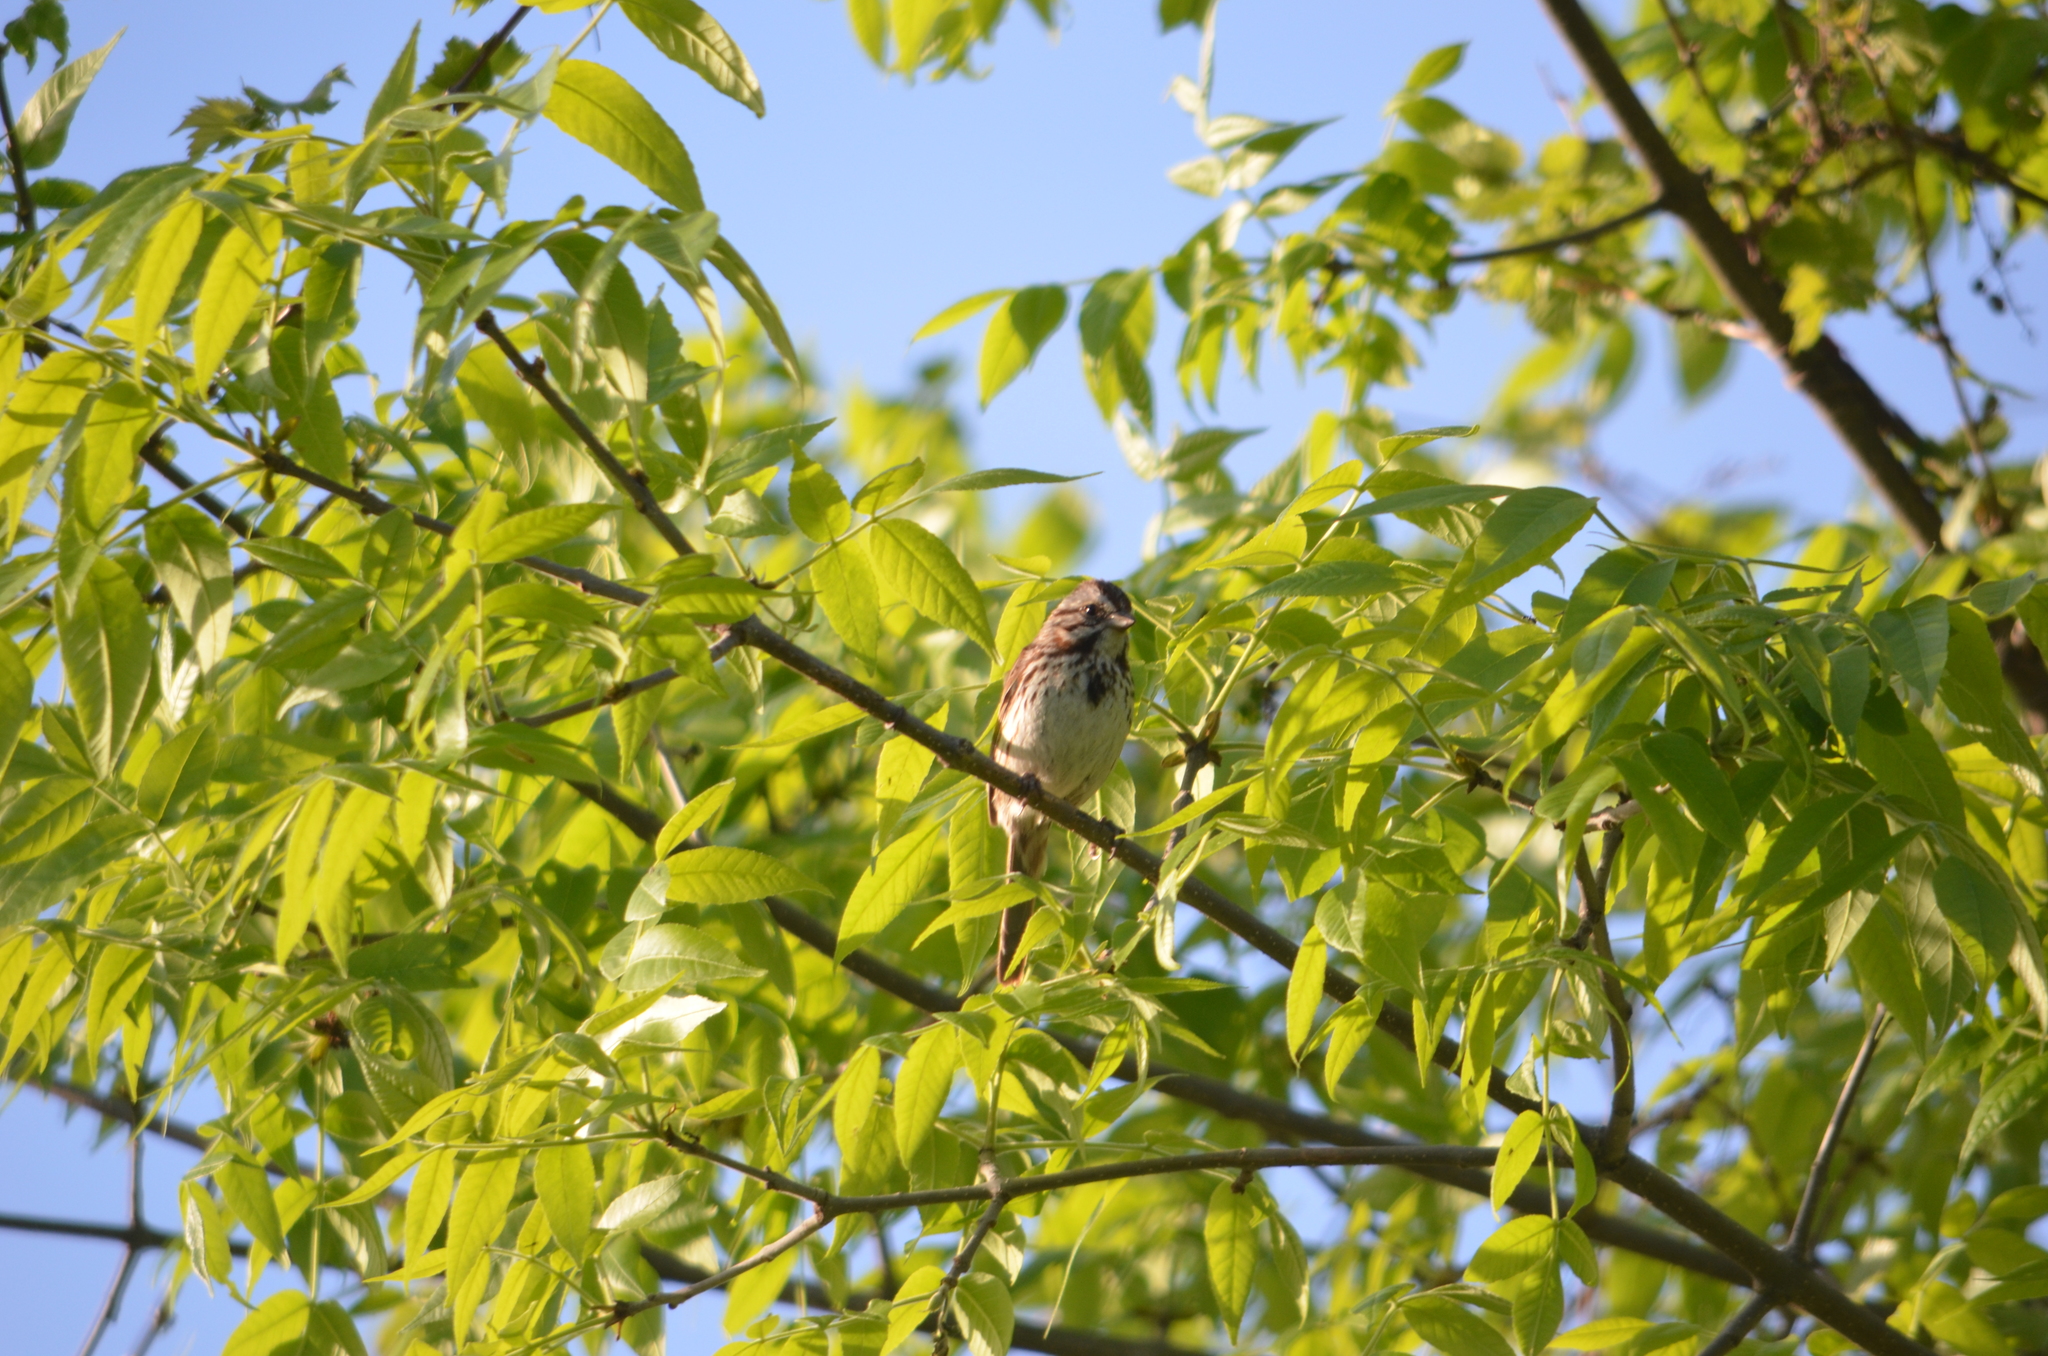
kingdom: Animalia
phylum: Chordata
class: Aves
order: Passeriformes
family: Passerellidae
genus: Melospiza
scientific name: Melospiza melodia
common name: Song sparrow
